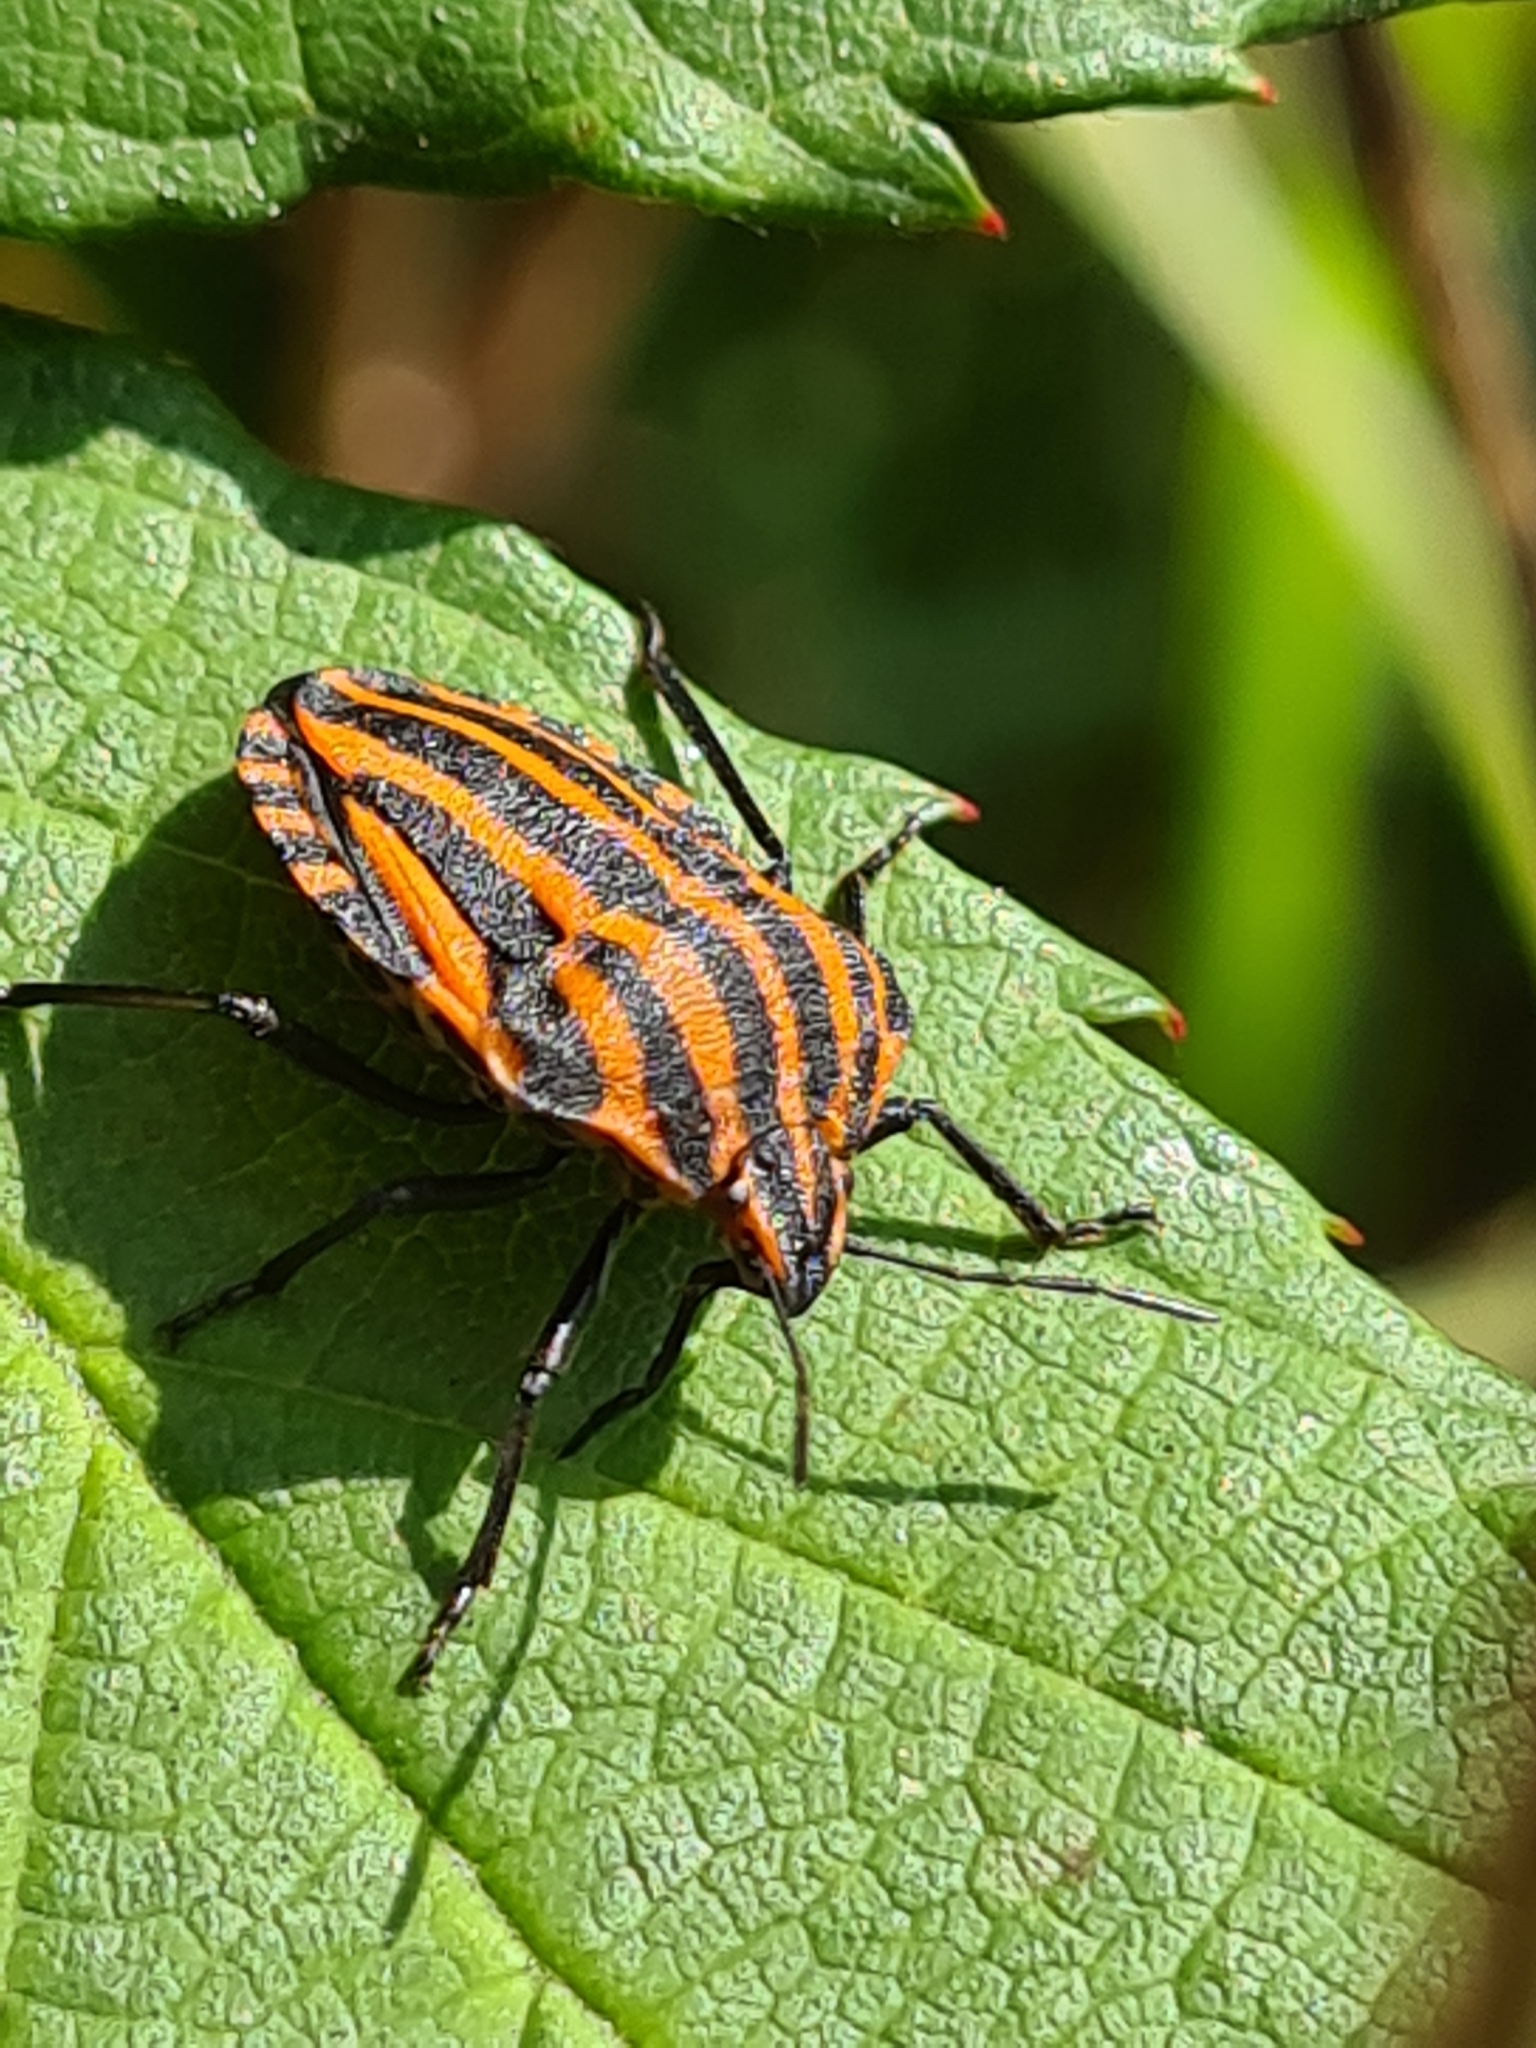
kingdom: Animalia
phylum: Arthropoda
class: Insecta
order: Hemiptera
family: Pentatomidae
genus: Graphosoma
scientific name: Graphosoma italicum
